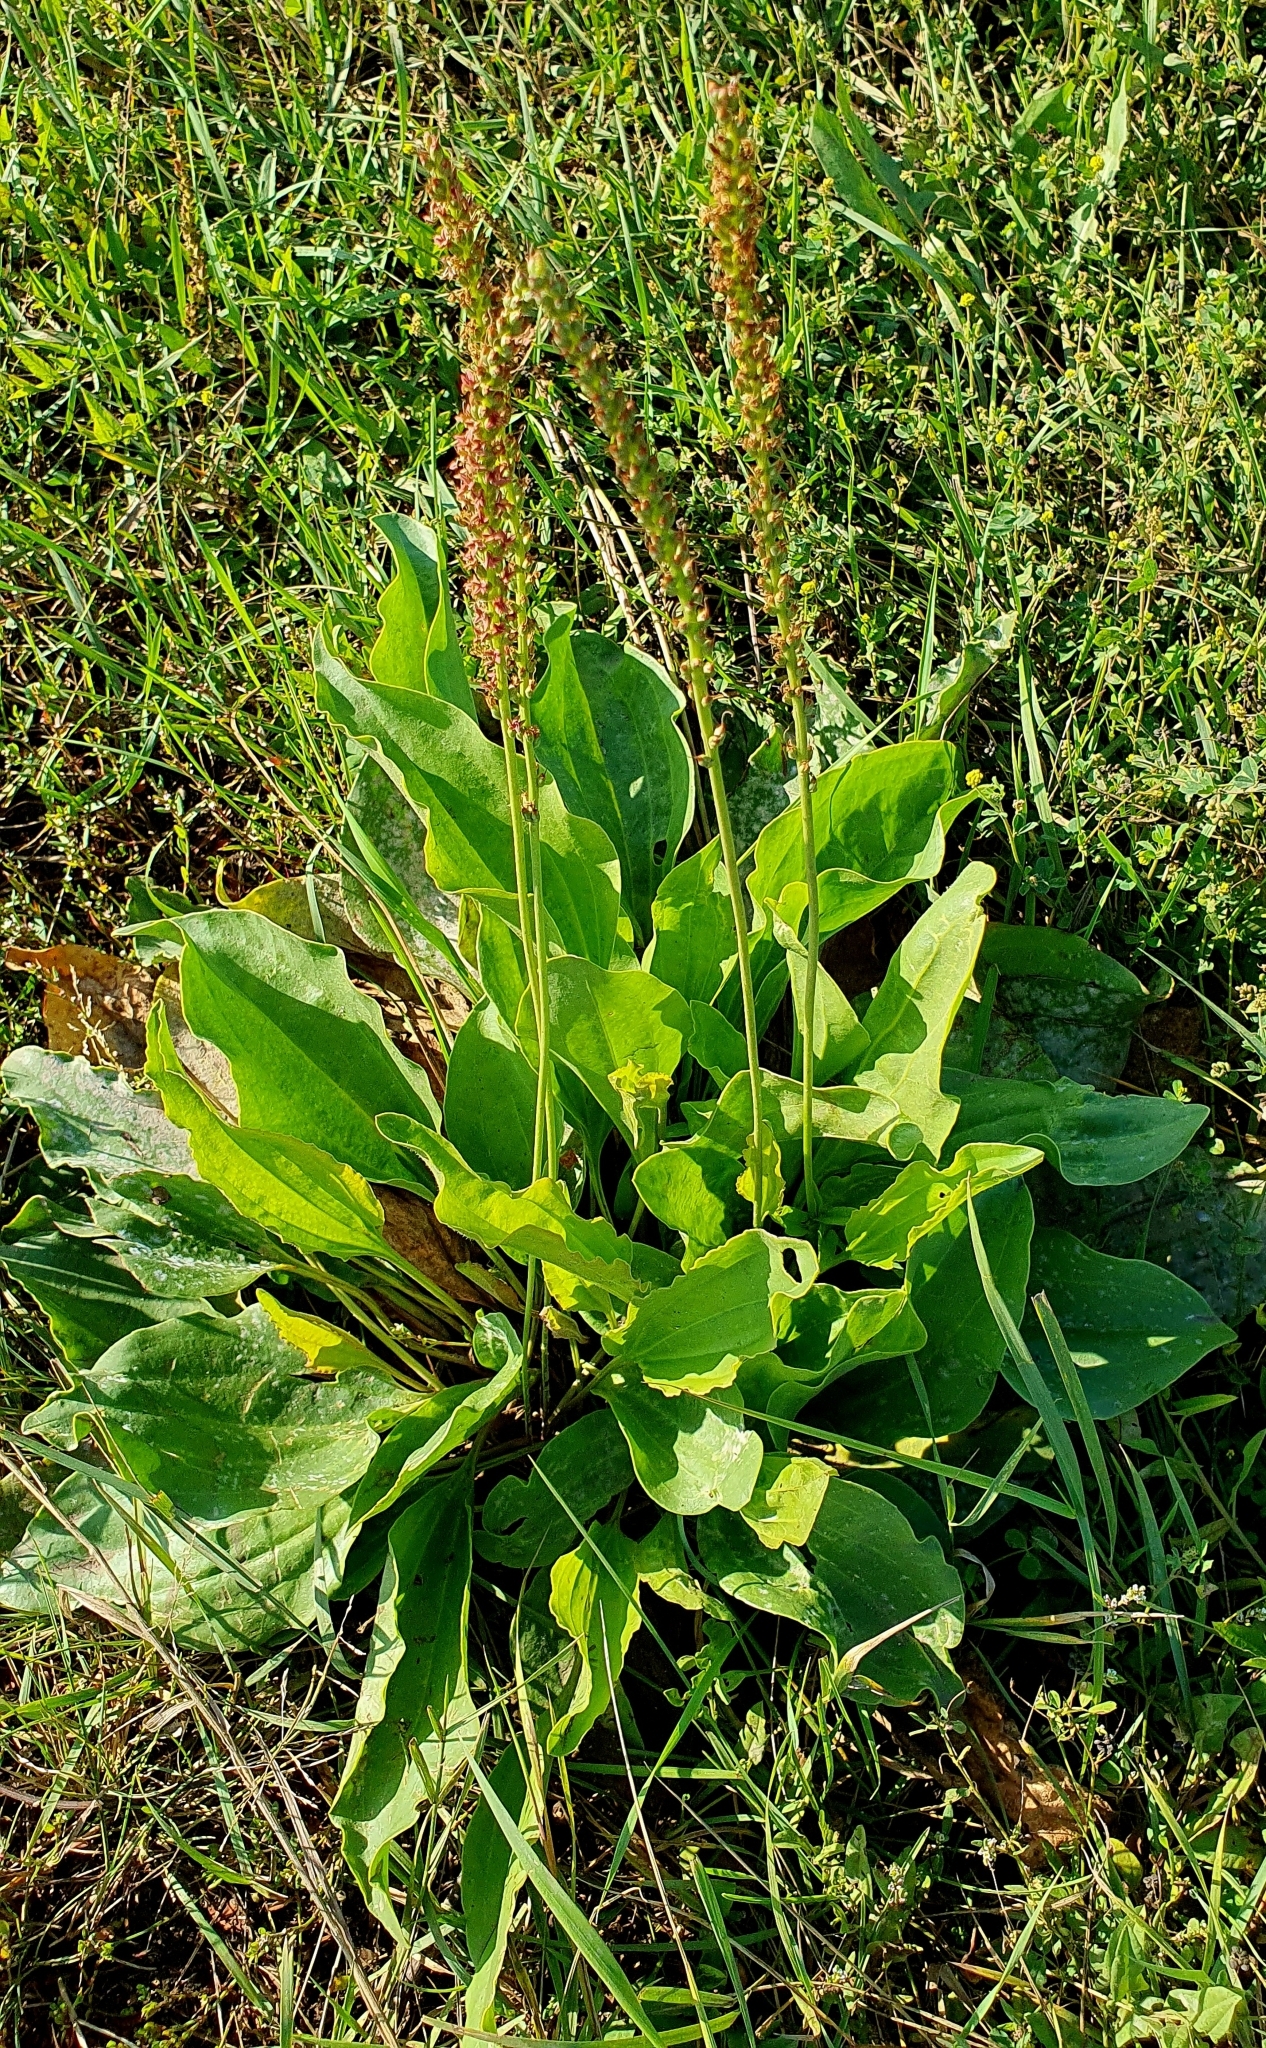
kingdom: Plantae
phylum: Tracheophyta
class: Magnoliopsida
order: Lamiales
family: Plantaginaceae
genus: Plantago
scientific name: Plantago major
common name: Common plantain
